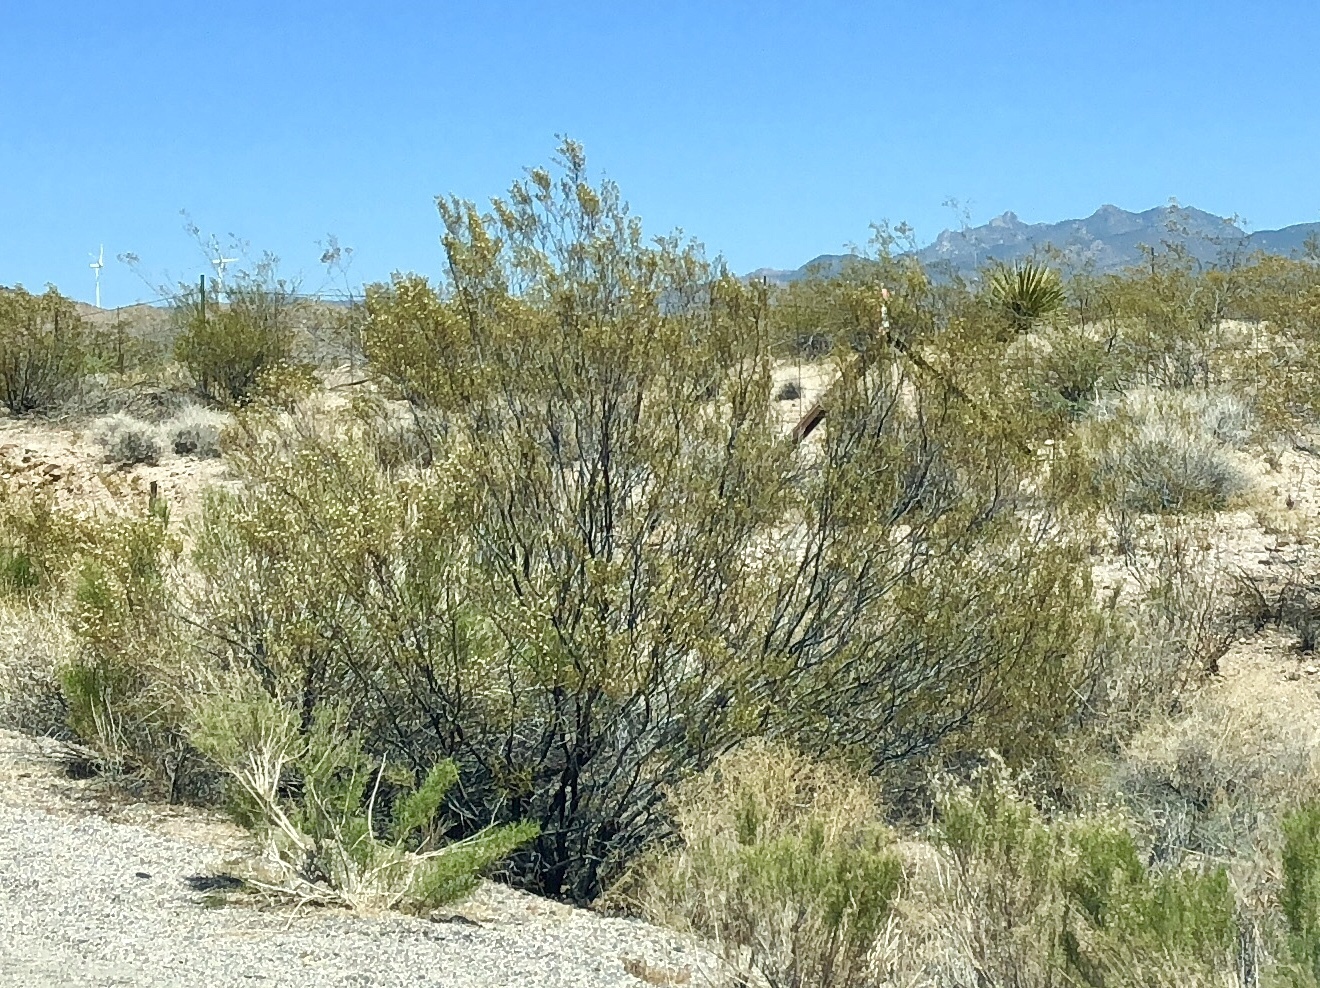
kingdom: Plantae
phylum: Tracheophyta
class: Magnoliopsida
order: Zygophyllales
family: Zygophyllaceae
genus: Larrea
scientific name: Larrea tridentata
